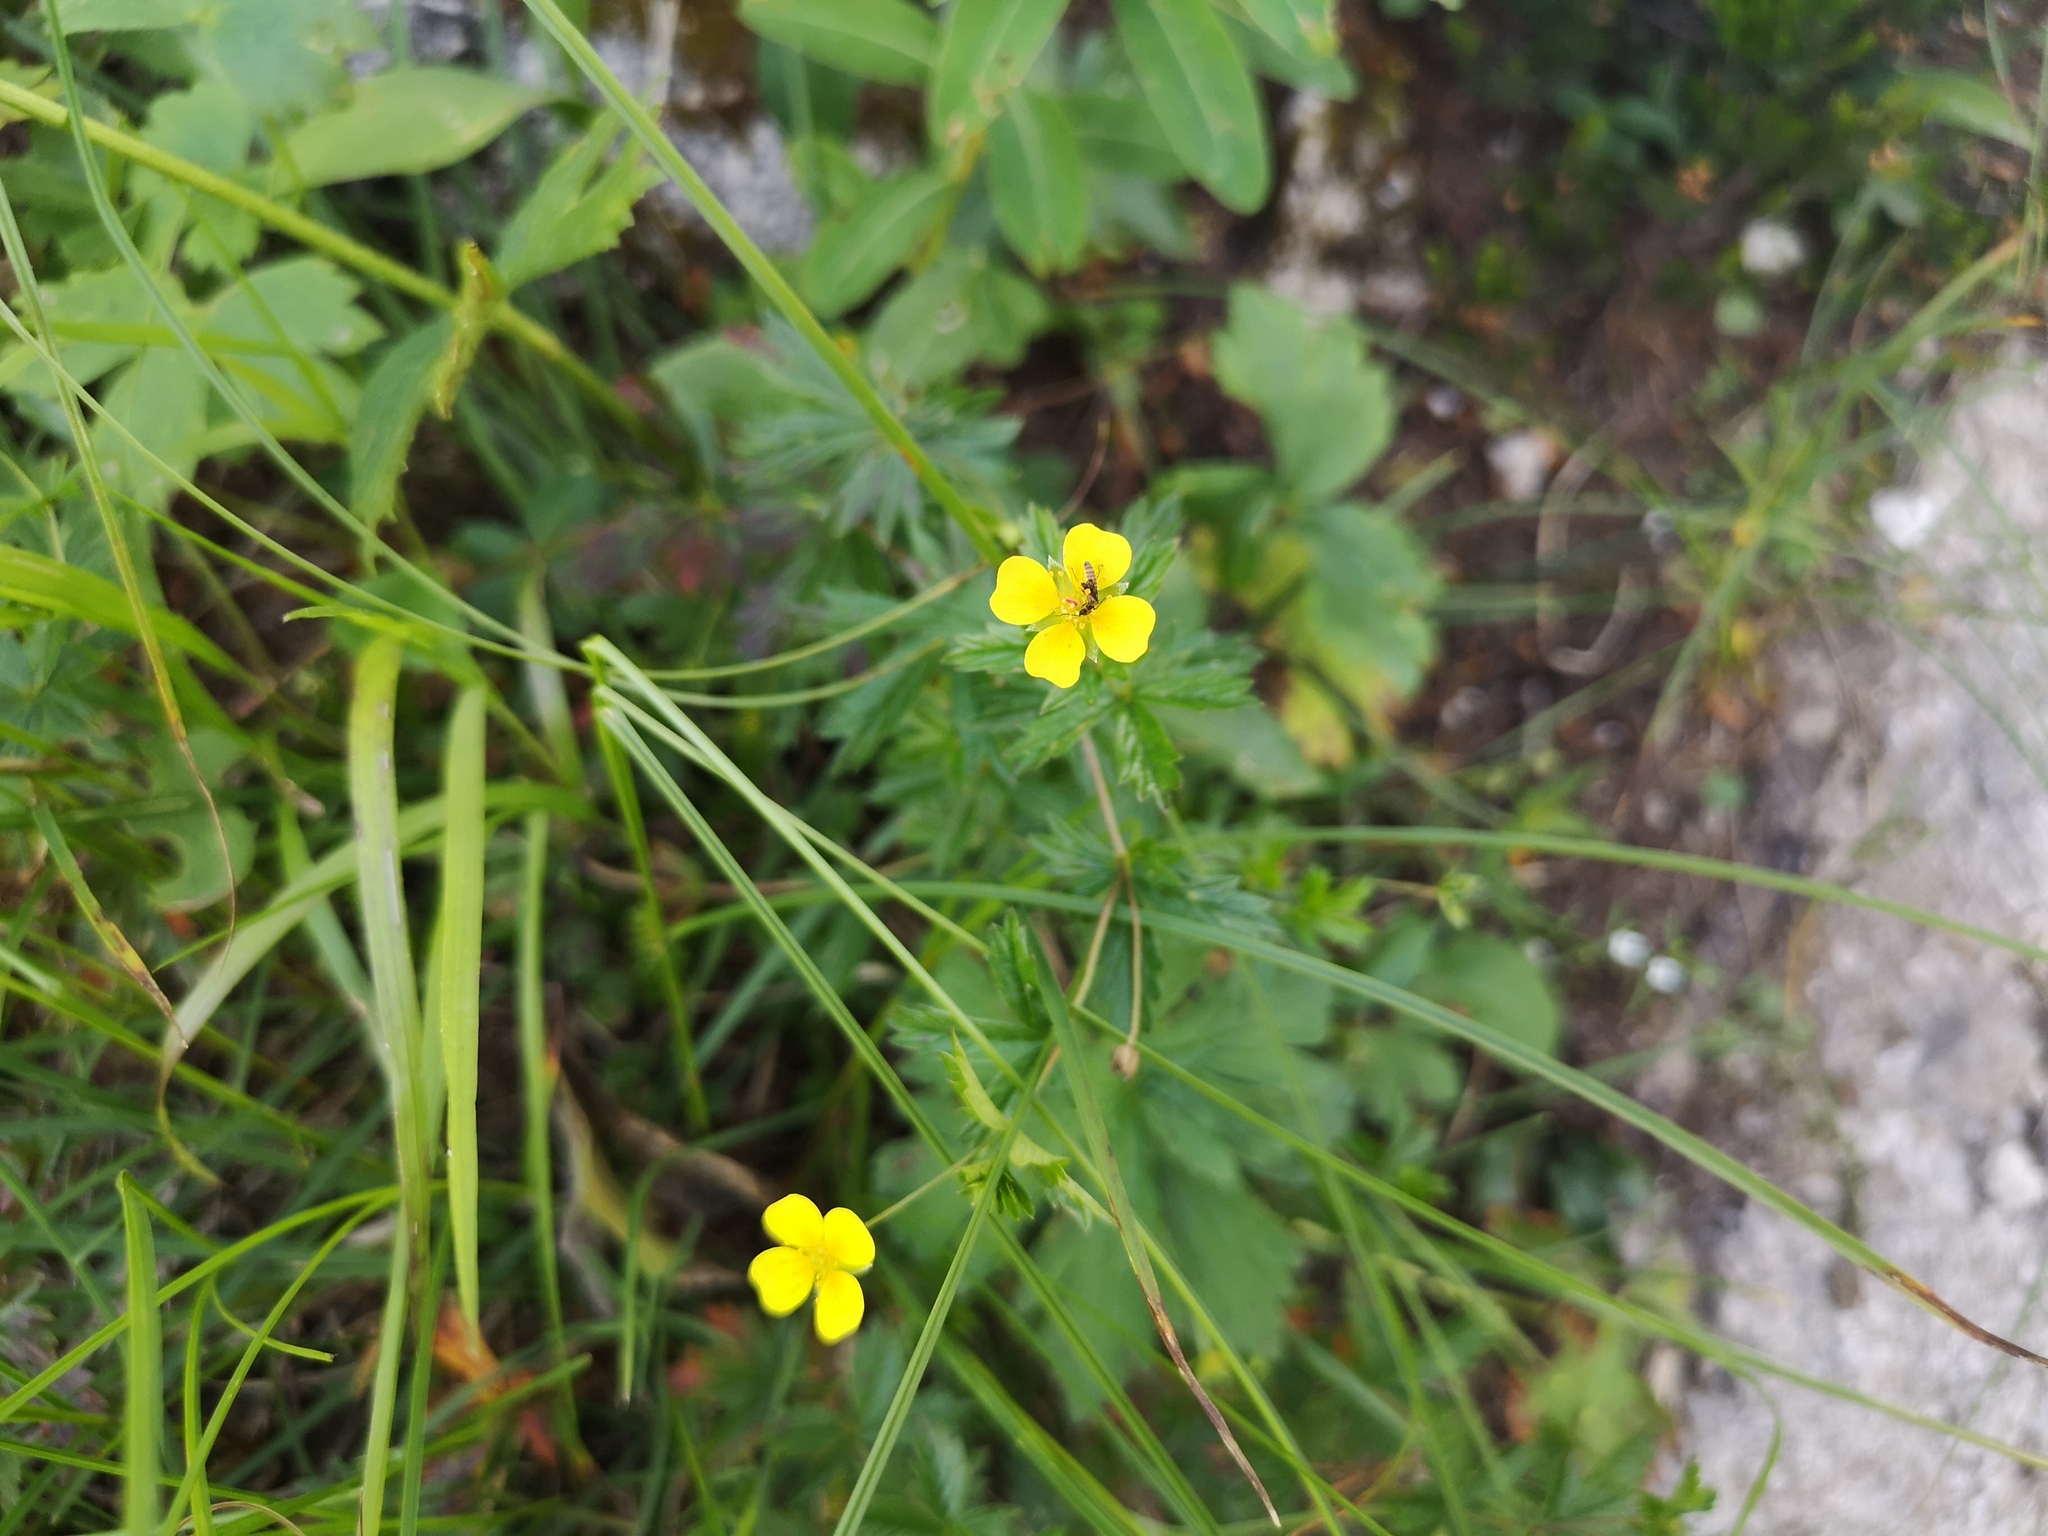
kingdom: Plantae
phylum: Tracheophyta
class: Magnoliopsida
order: Rosales
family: Rosaceae
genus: Potentilla
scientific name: Potentilla erecta
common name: Tormentil
